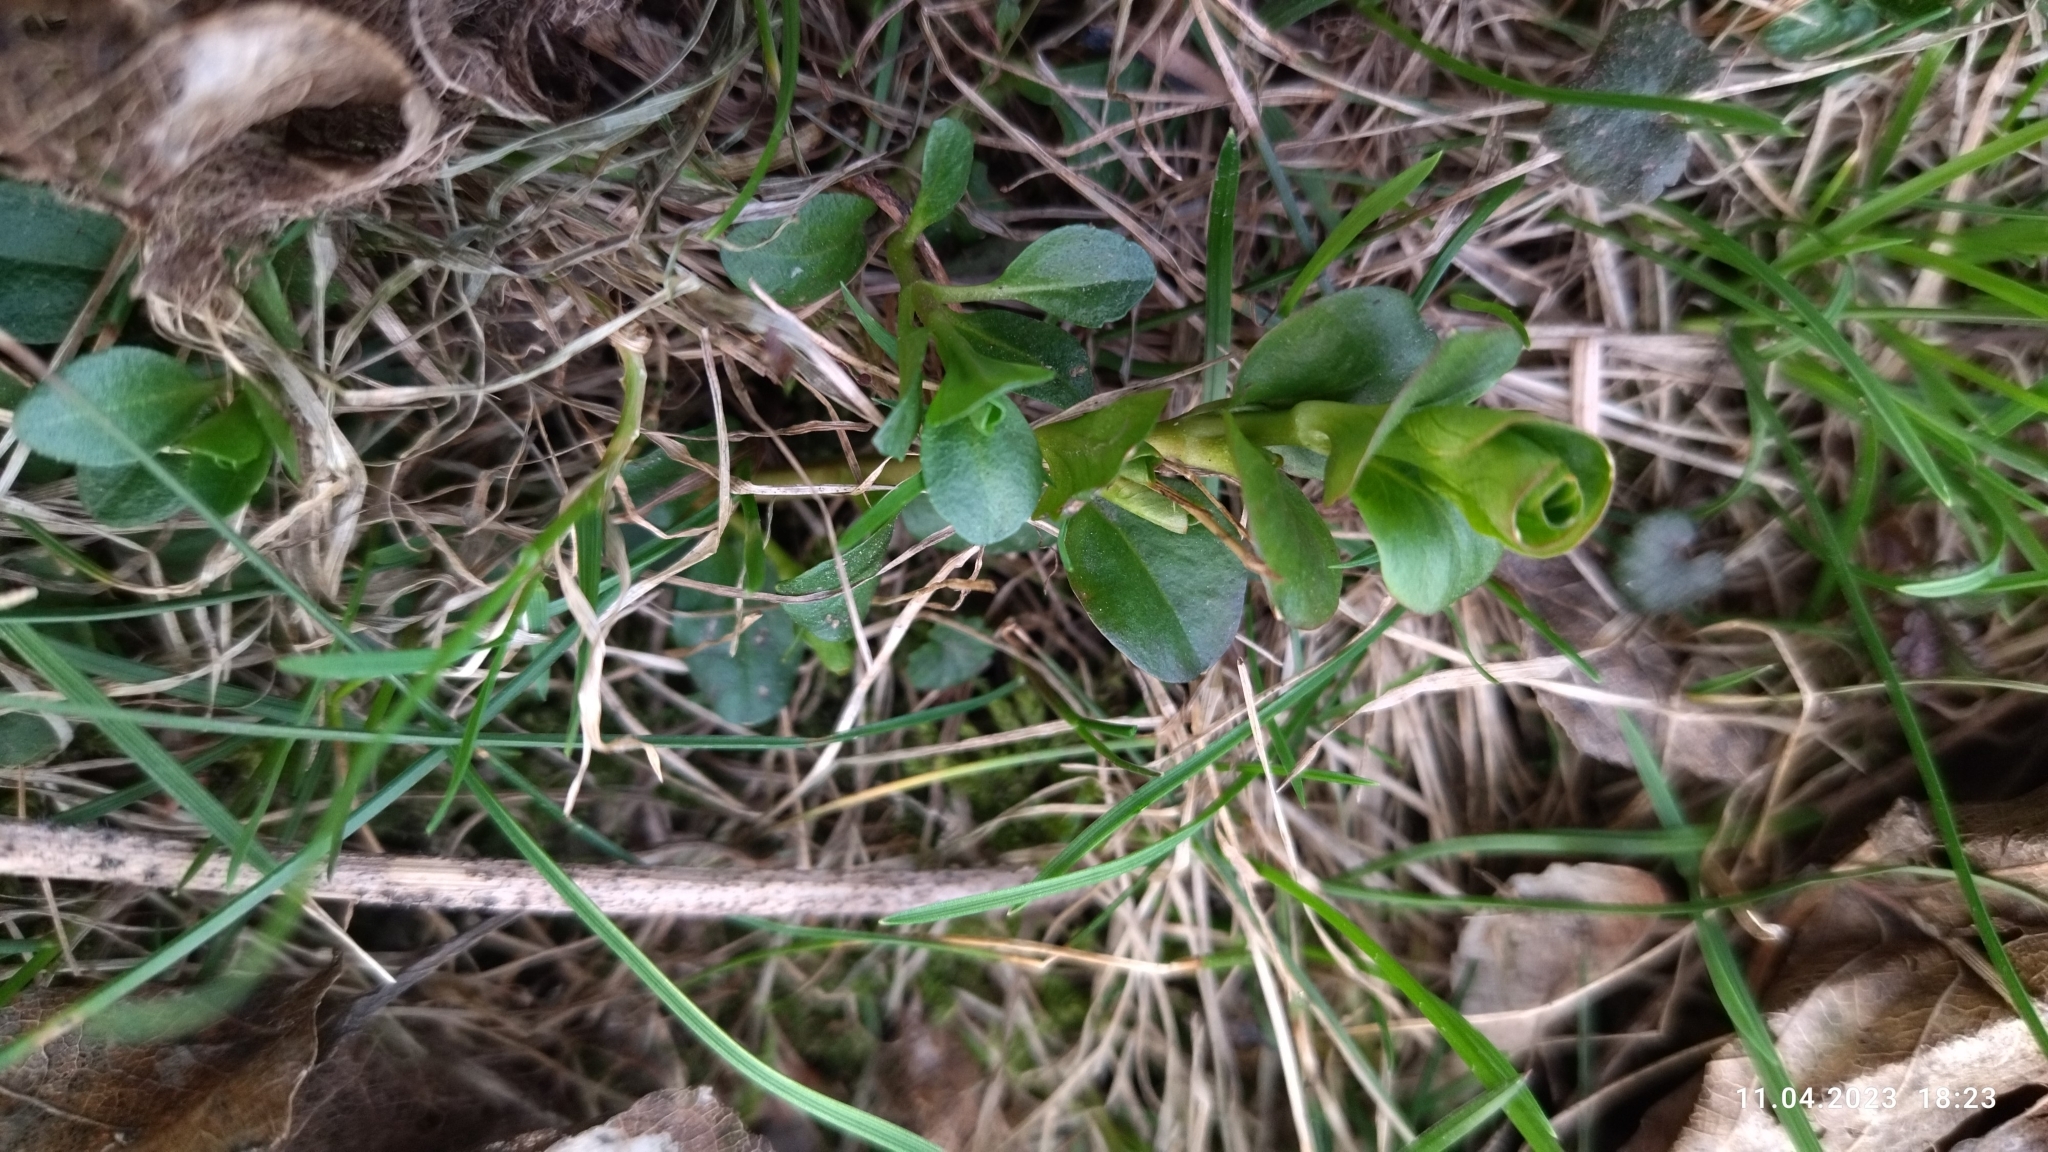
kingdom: Plantae
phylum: Tracheophyta
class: Magnoliopsida
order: Ericales
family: Primulaceae
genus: Lysimachia
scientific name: Lysimachia nummularia
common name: Moneywort
